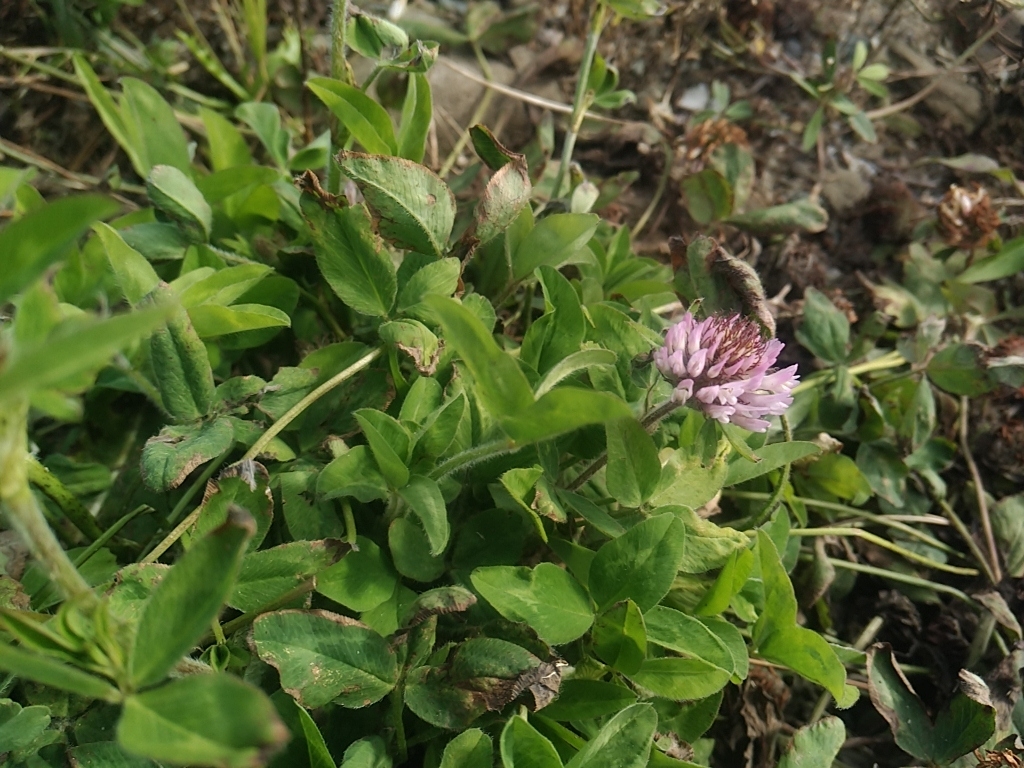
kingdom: Plantae
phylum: Tracheophyta
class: Magnoliopsida
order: Fabales
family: Fabaceae
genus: Trifolium
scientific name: Trifolium pratense
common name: Red clover
